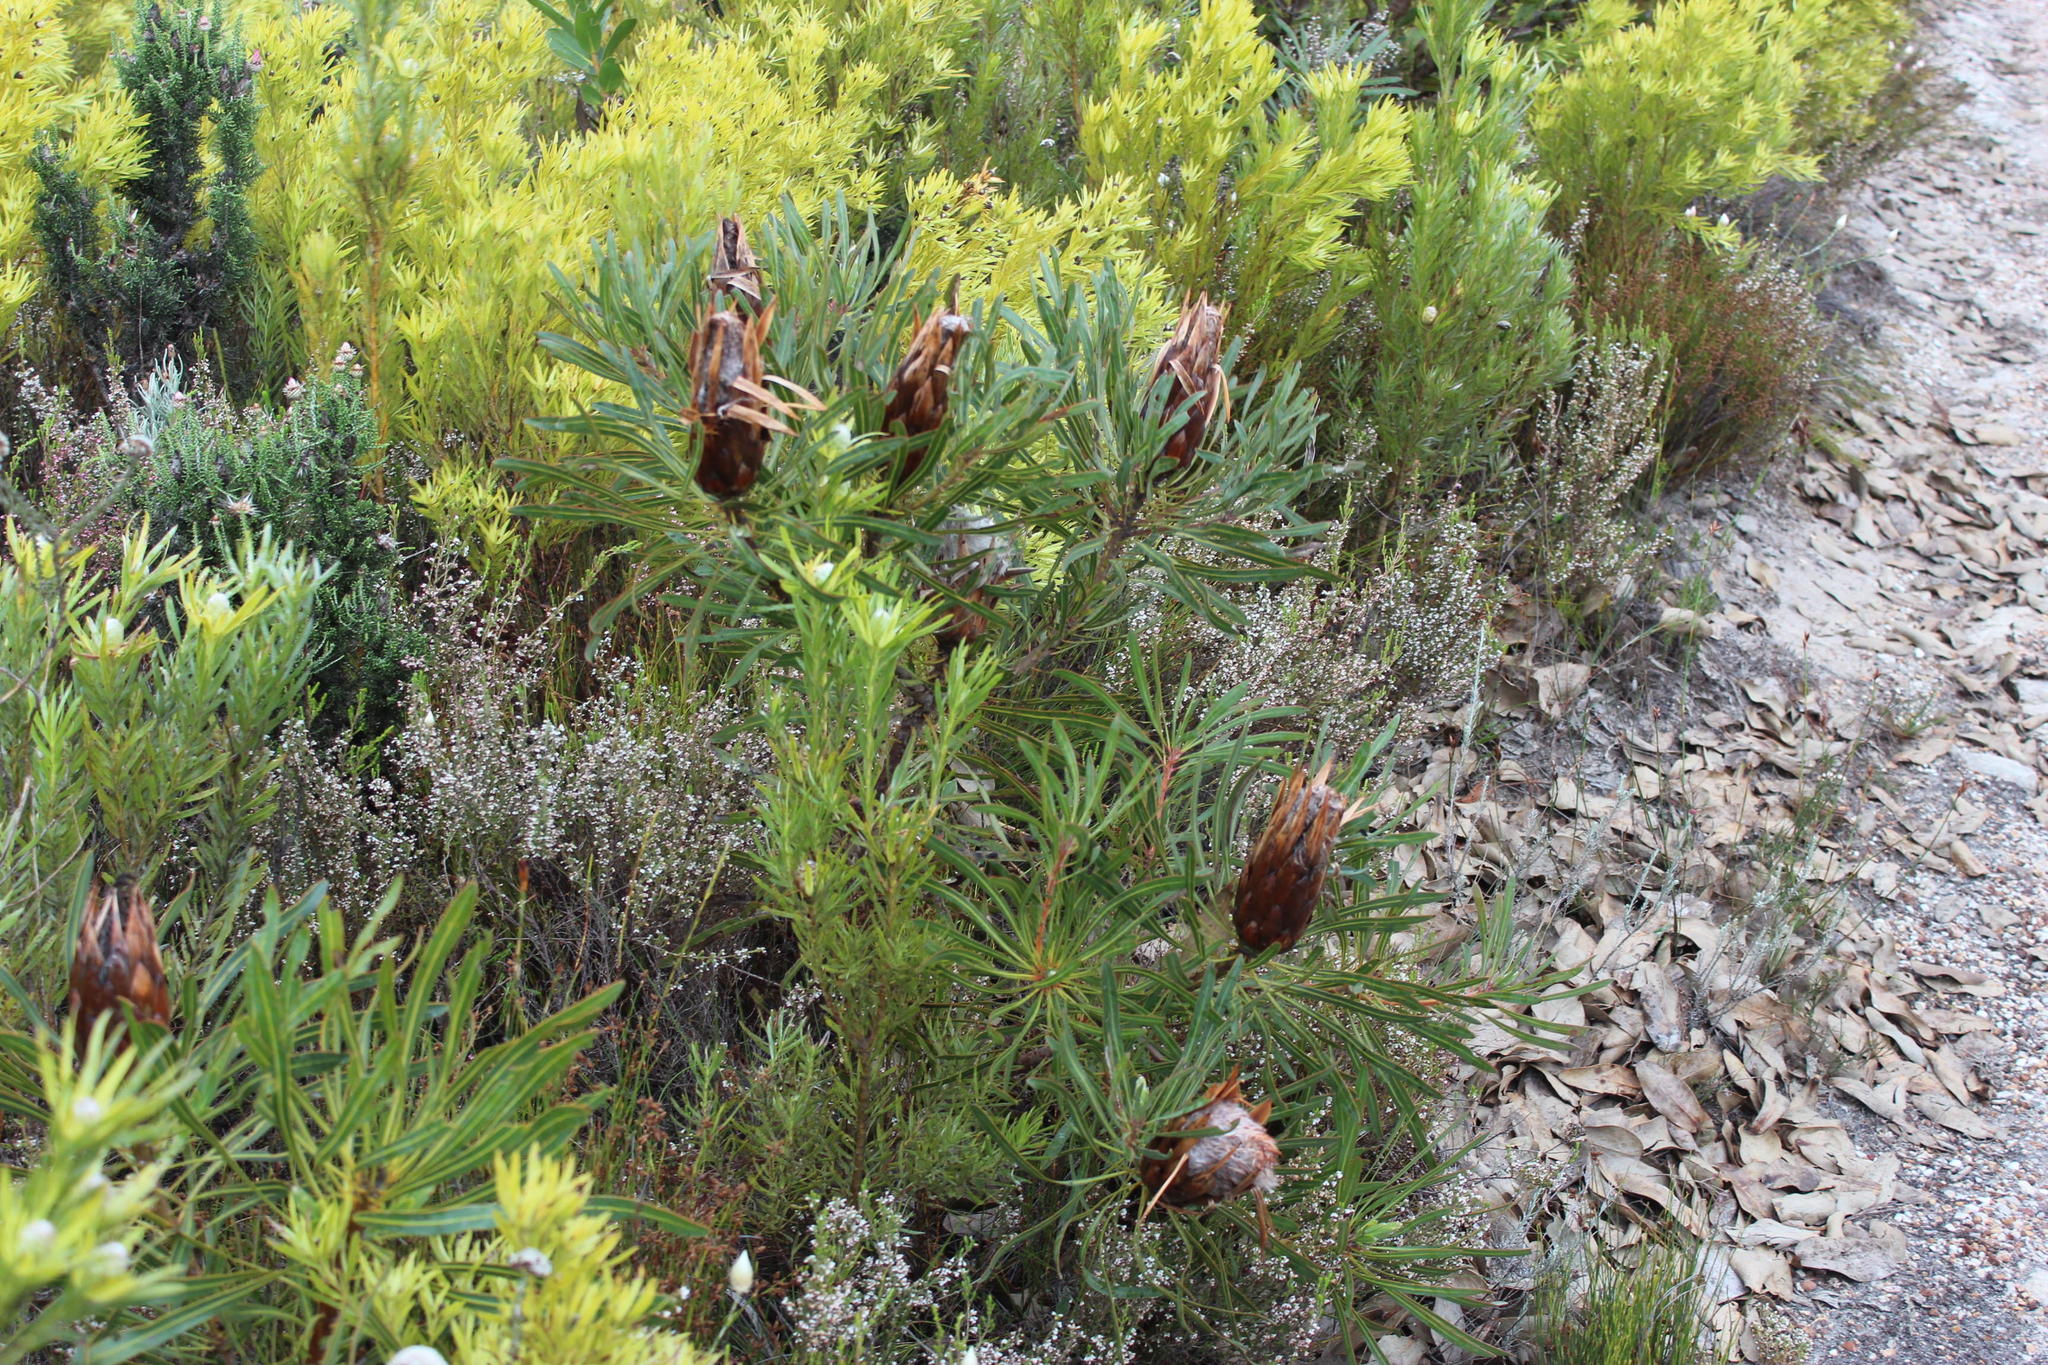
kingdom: Plantae
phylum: Tracheophyta
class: Magnoliopsida
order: Proteales
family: Proteaceae
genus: Protea
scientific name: Protea longifolia
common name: Long-leaf sugarbush
